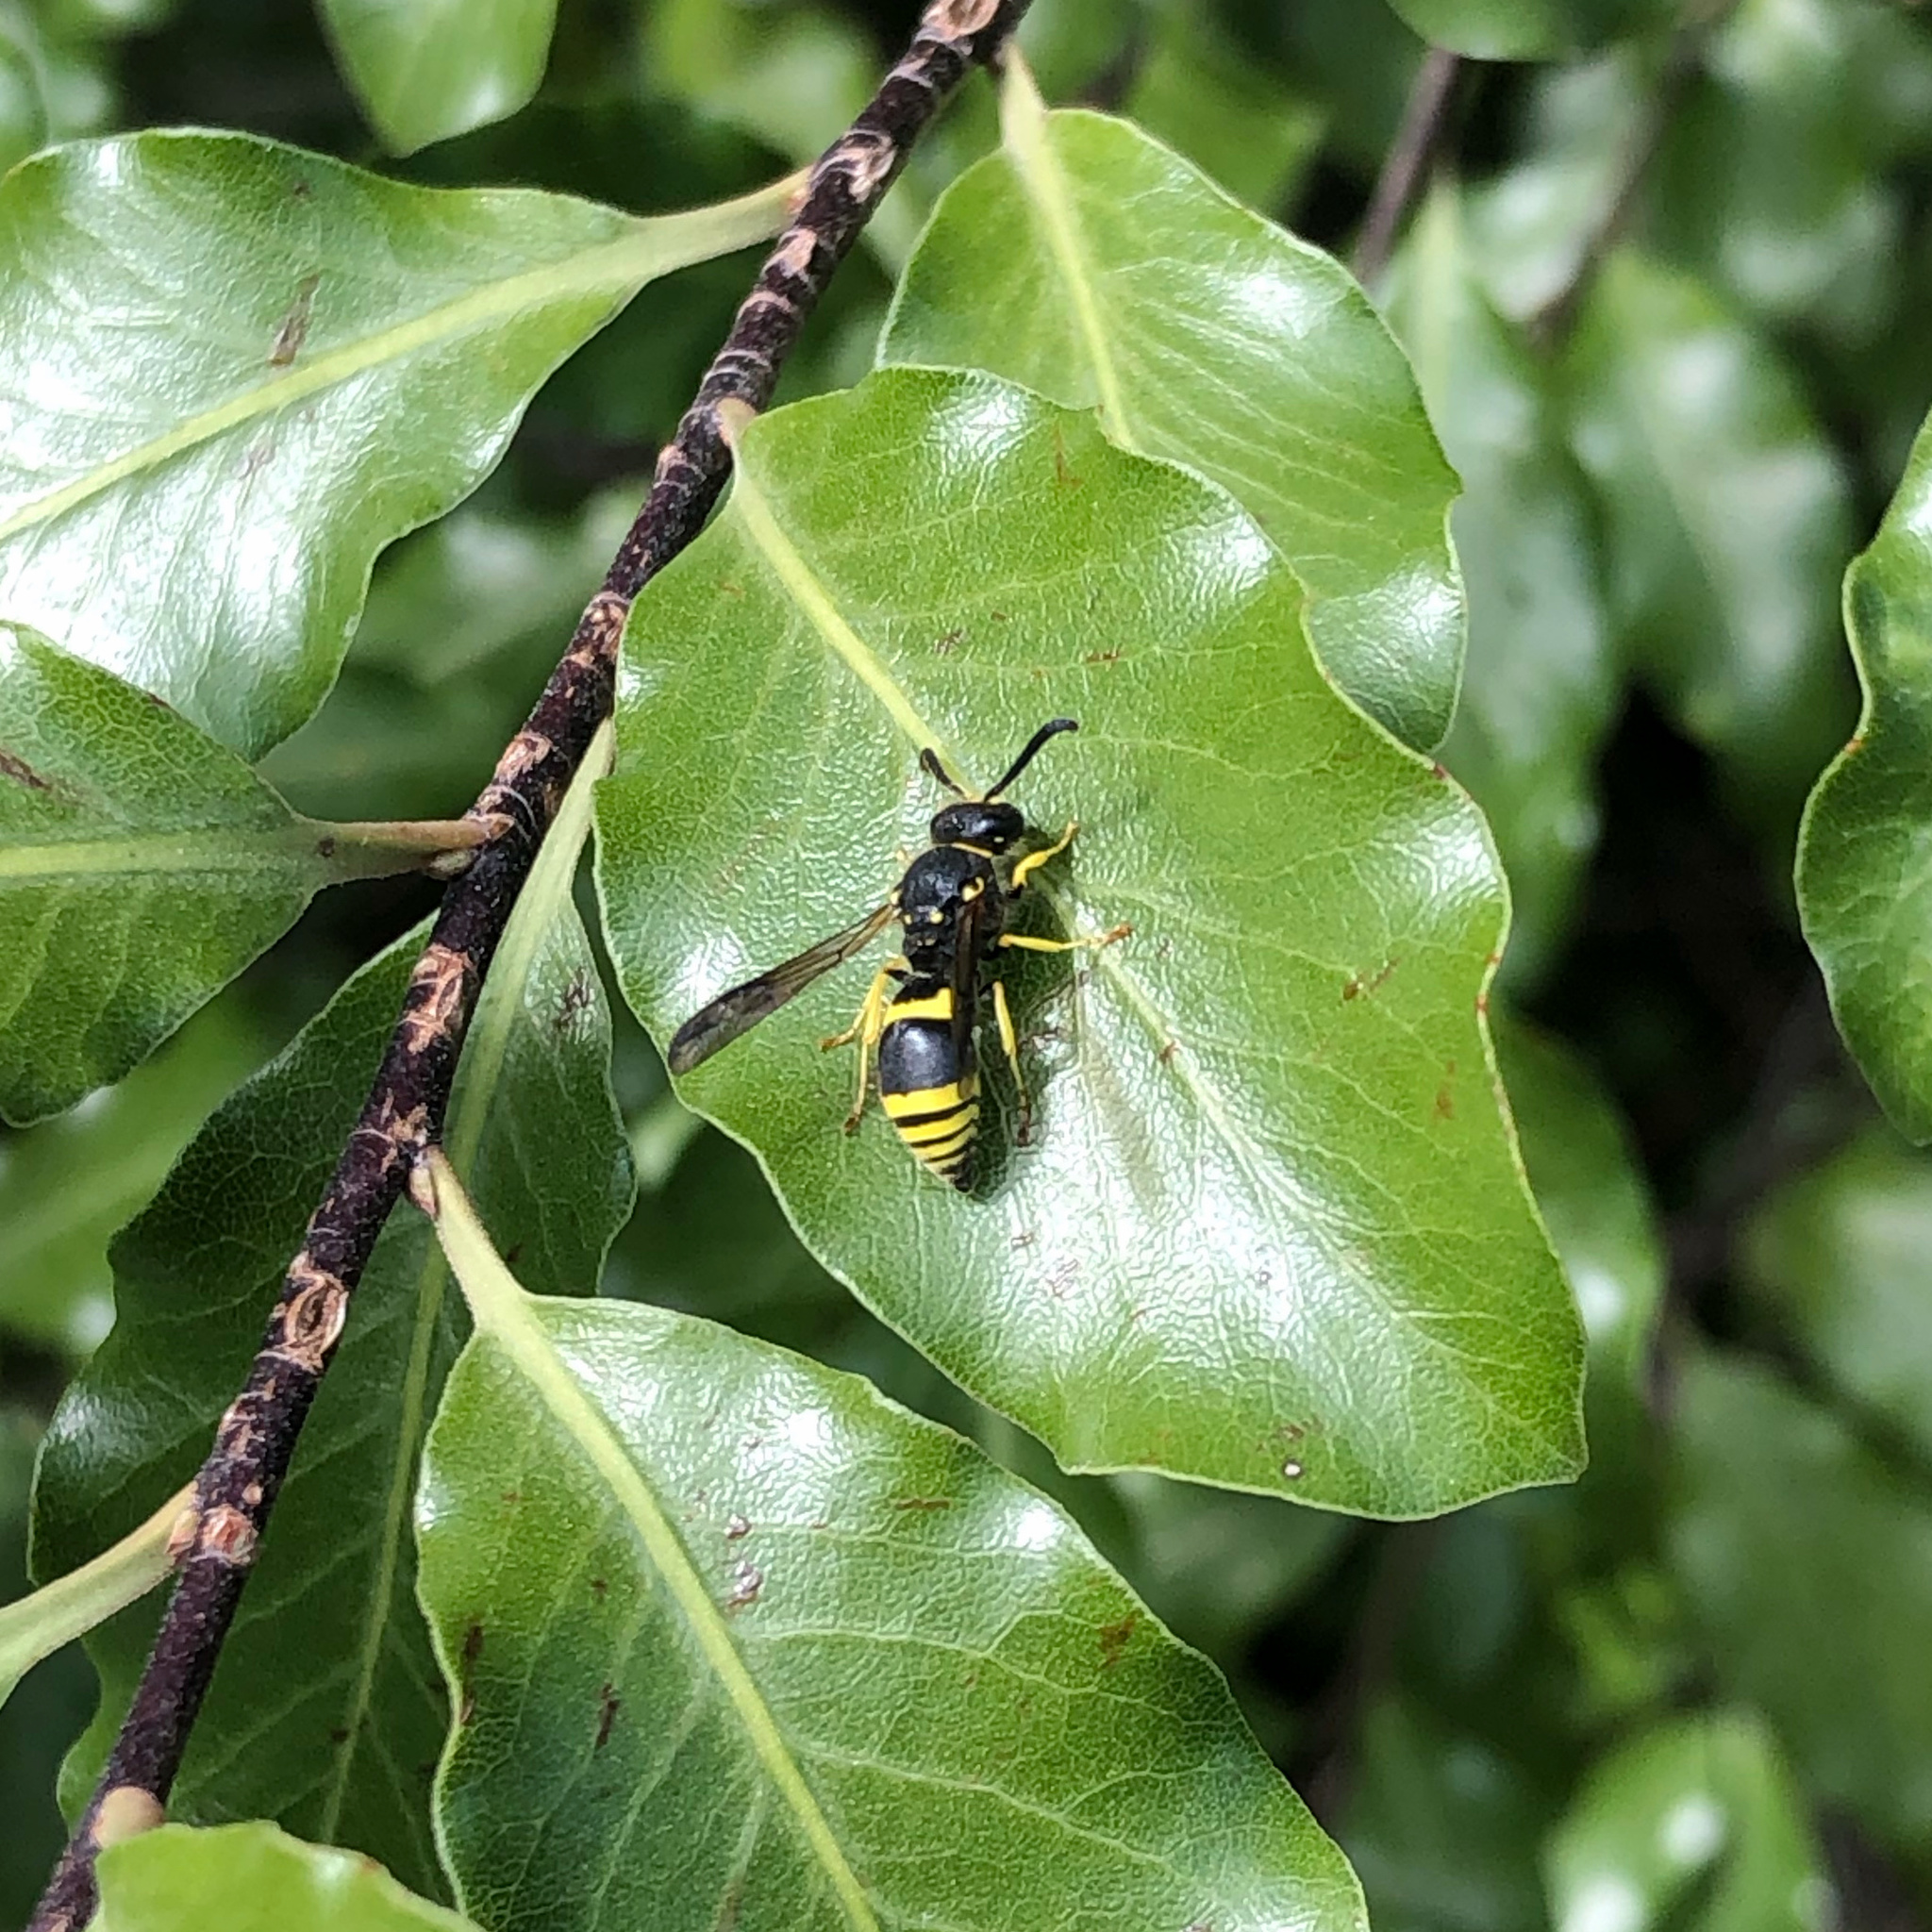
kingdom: Animalia
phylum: Arthropoda
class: Insecta
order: Hymenoptera
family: Vespidae
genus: Ancistrocerus
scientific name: Ancistrocerus gazella
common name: European tube wasp
